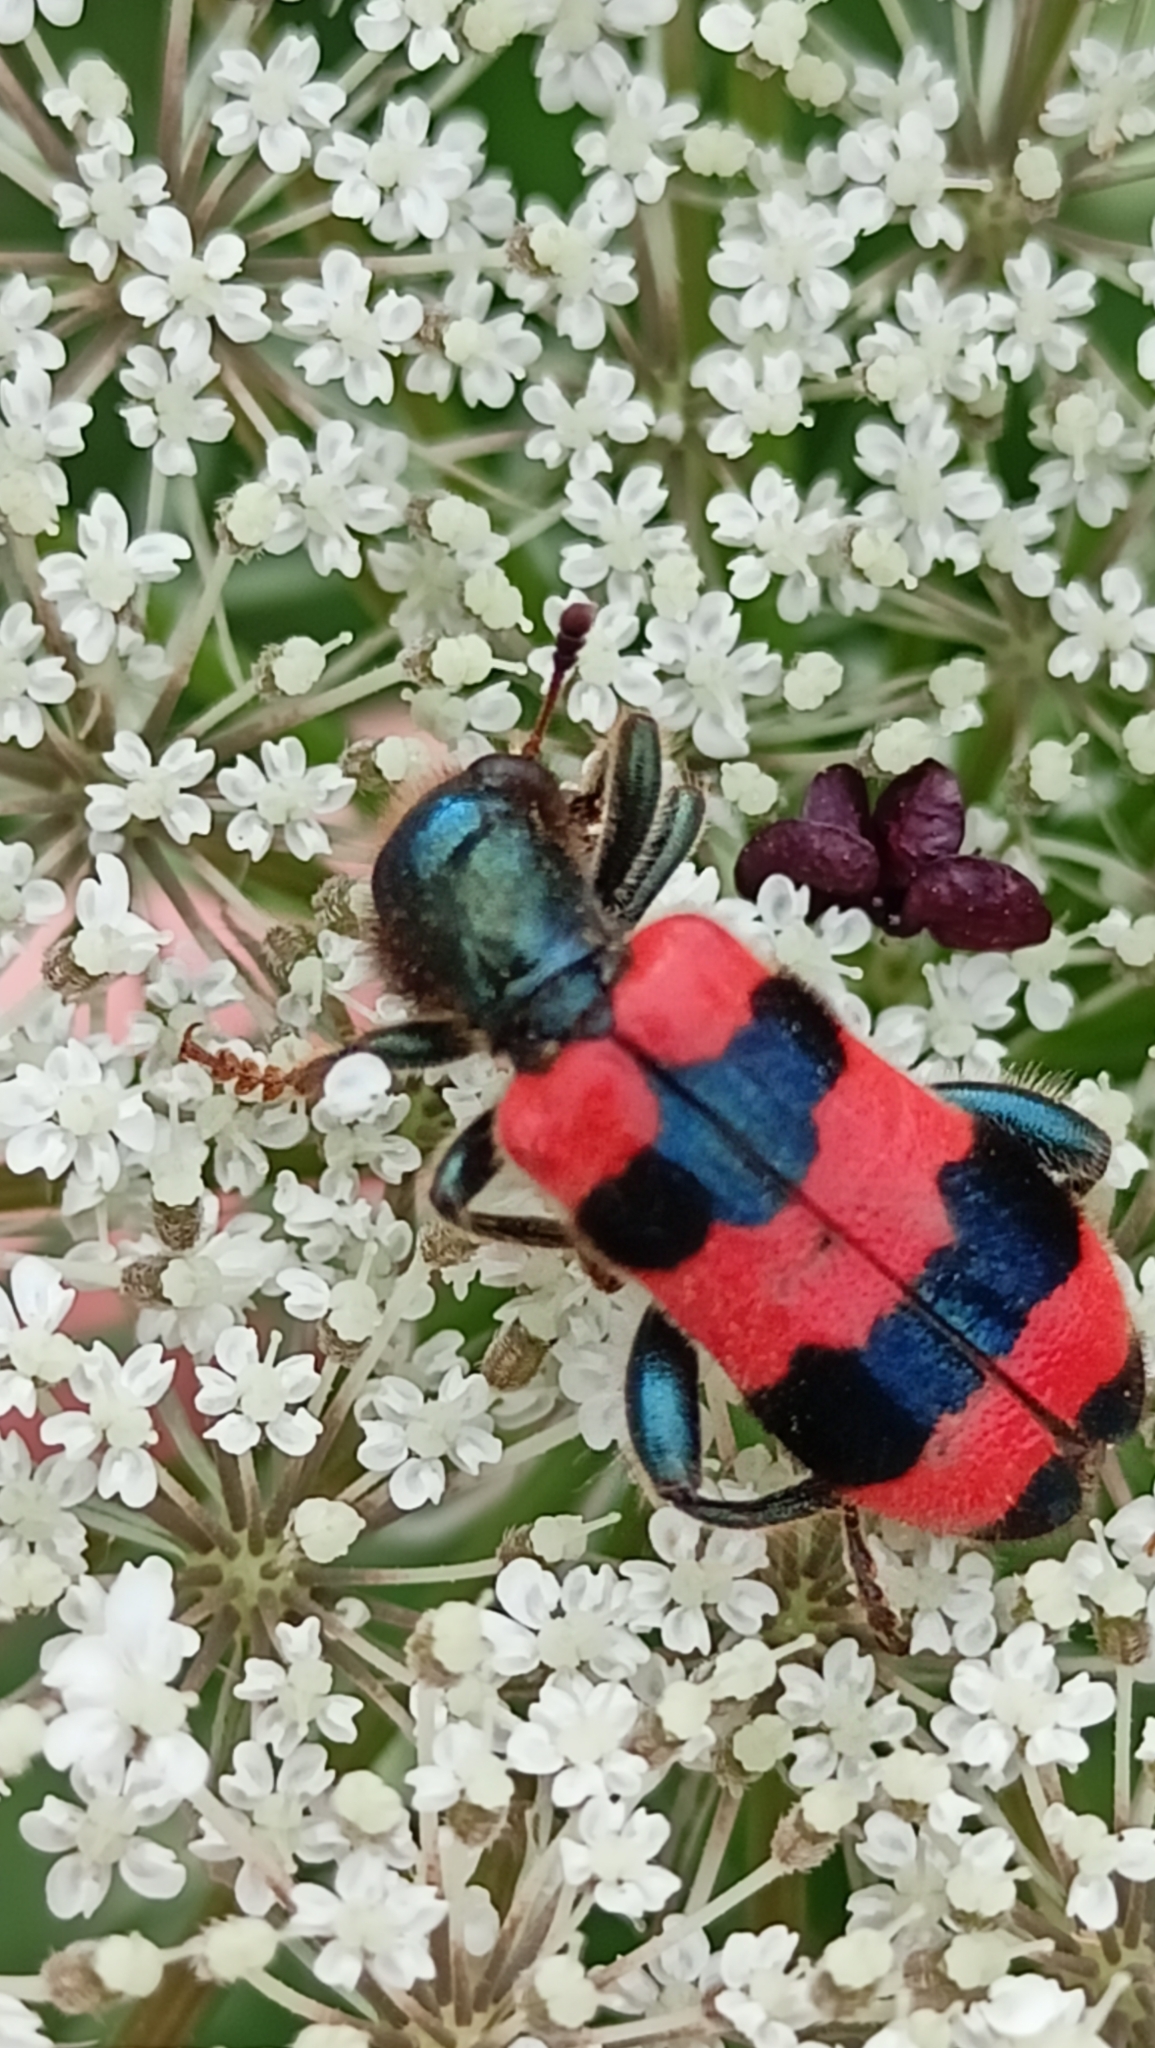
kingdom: Animalia
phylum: Arthropoda
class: Insecta
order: Coleoptera
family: Cleridae
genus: Trichodes
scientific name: Trichodes apiarius
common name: Bee-eating beetle
